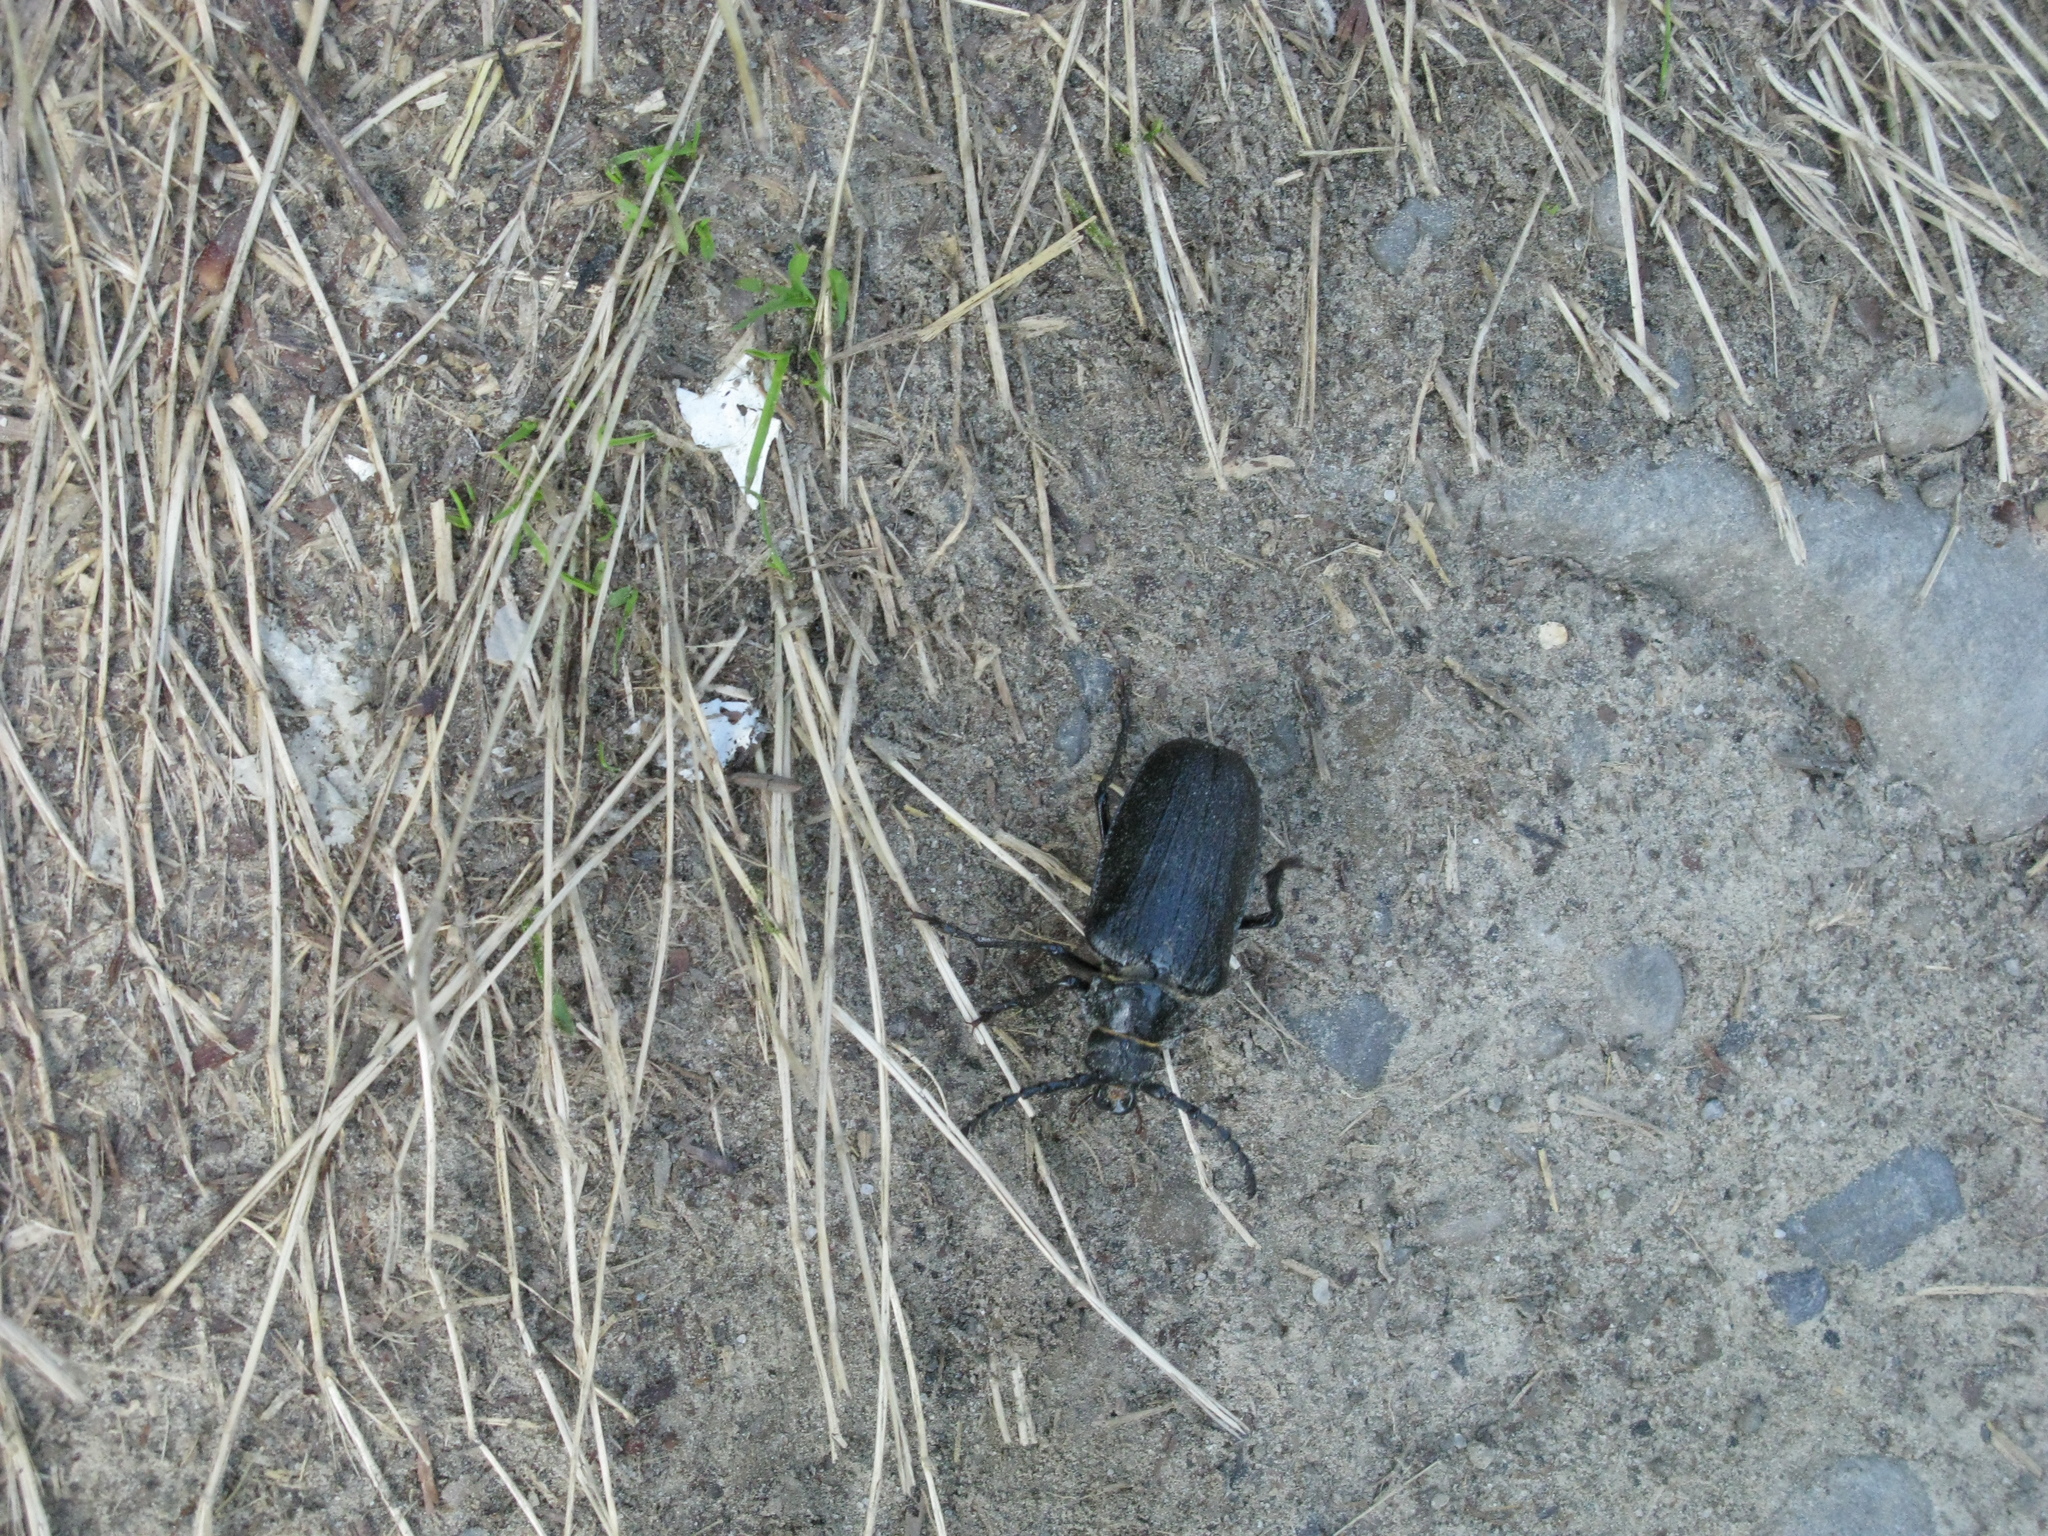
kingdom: Animalia
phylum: Arthropoda
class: Insecta
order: Coleoptera
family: Cerambycidae
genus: Prionus
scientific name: Prionus coriarius
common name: Tanner beetle
